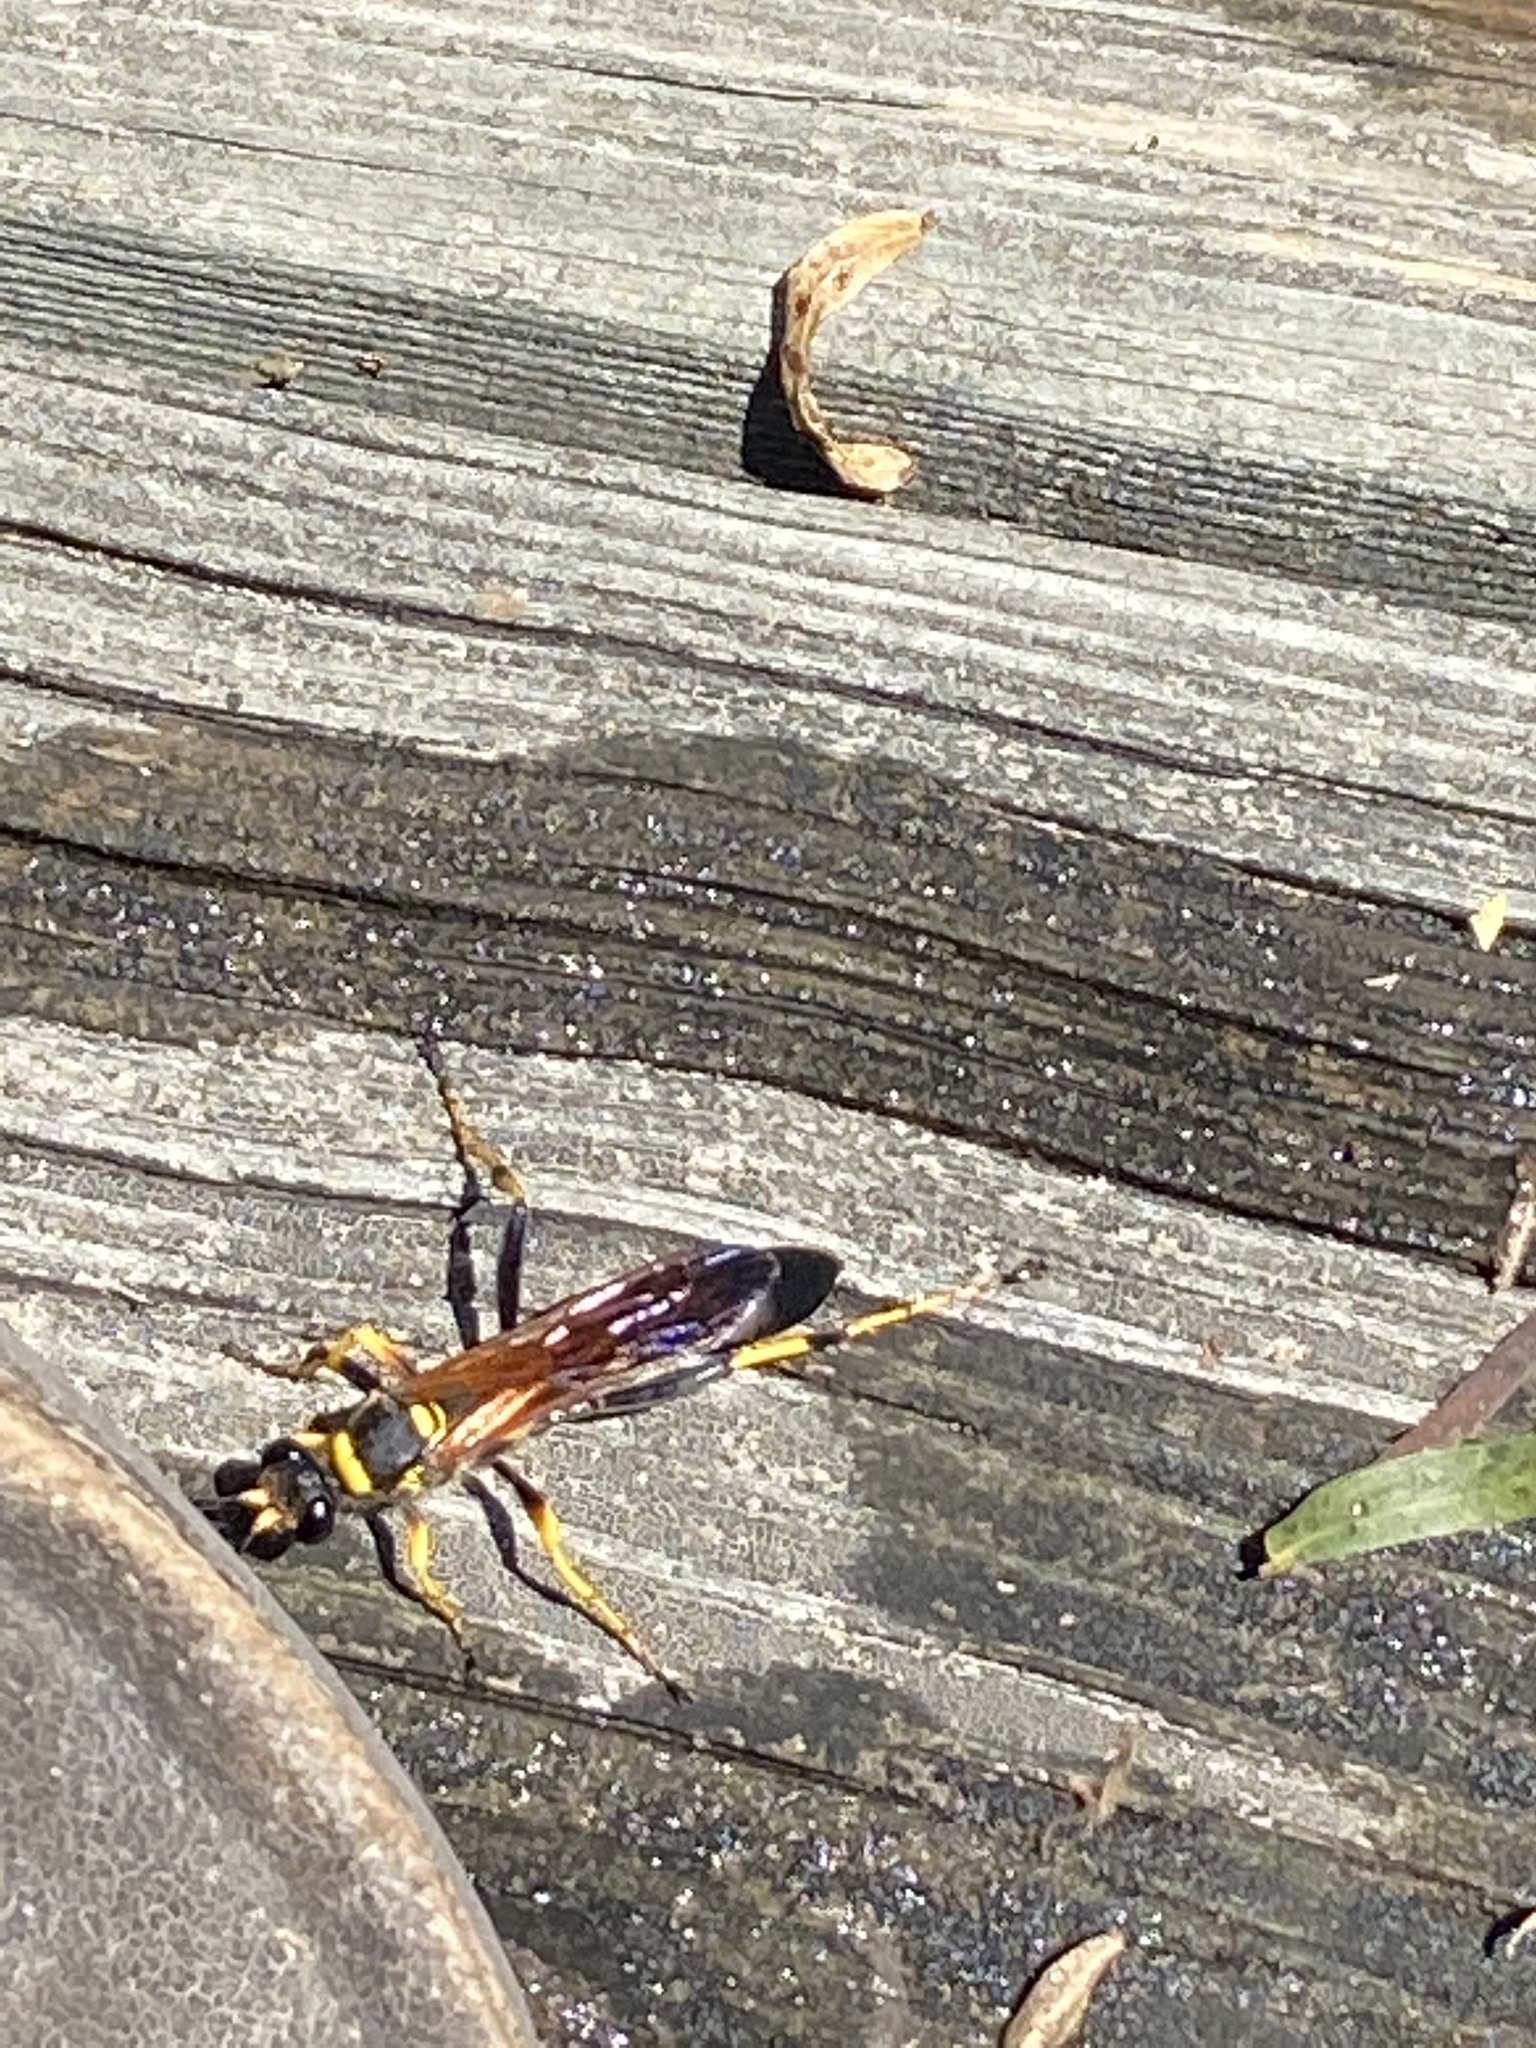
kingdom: Animalia
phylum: Arthropoda
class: Insecta
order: Hymenoptera
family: Sphecidae
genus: Sceliphron
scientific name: Sceliphron caementarium
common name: Mud dauber
